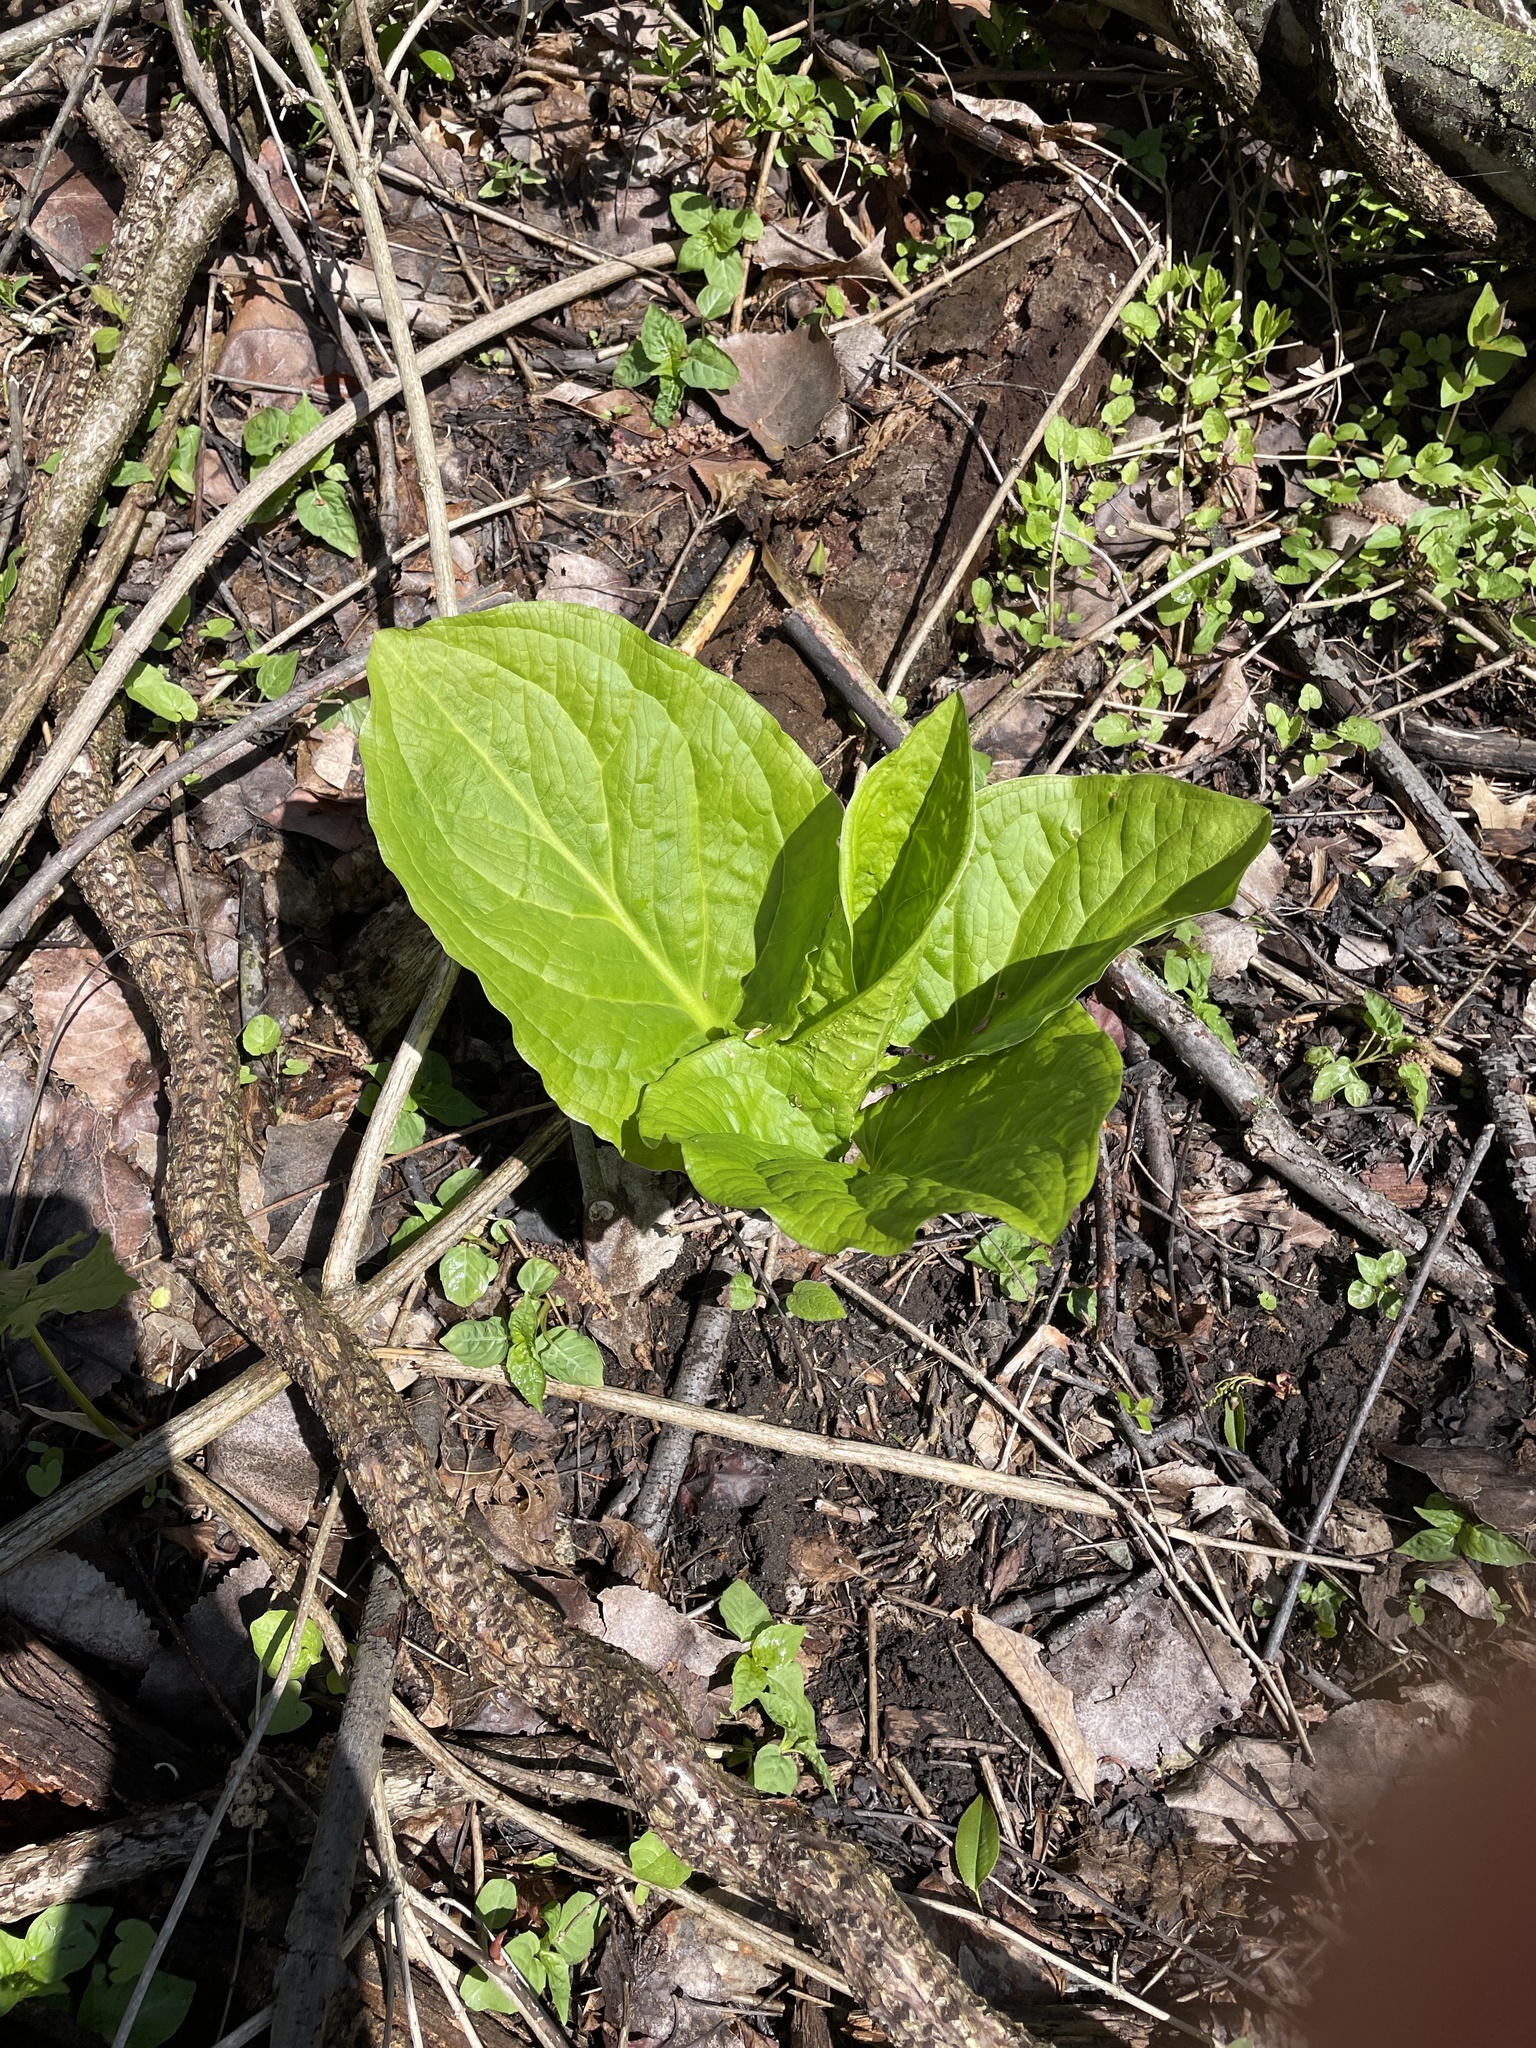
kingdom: Plantae
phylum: Tracheophyta
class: Liliopsida
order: Alismatales
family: Araceae
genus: Symplocarpus
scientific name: Symplocarpus foetidus
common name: Eastern skunk cabbage
